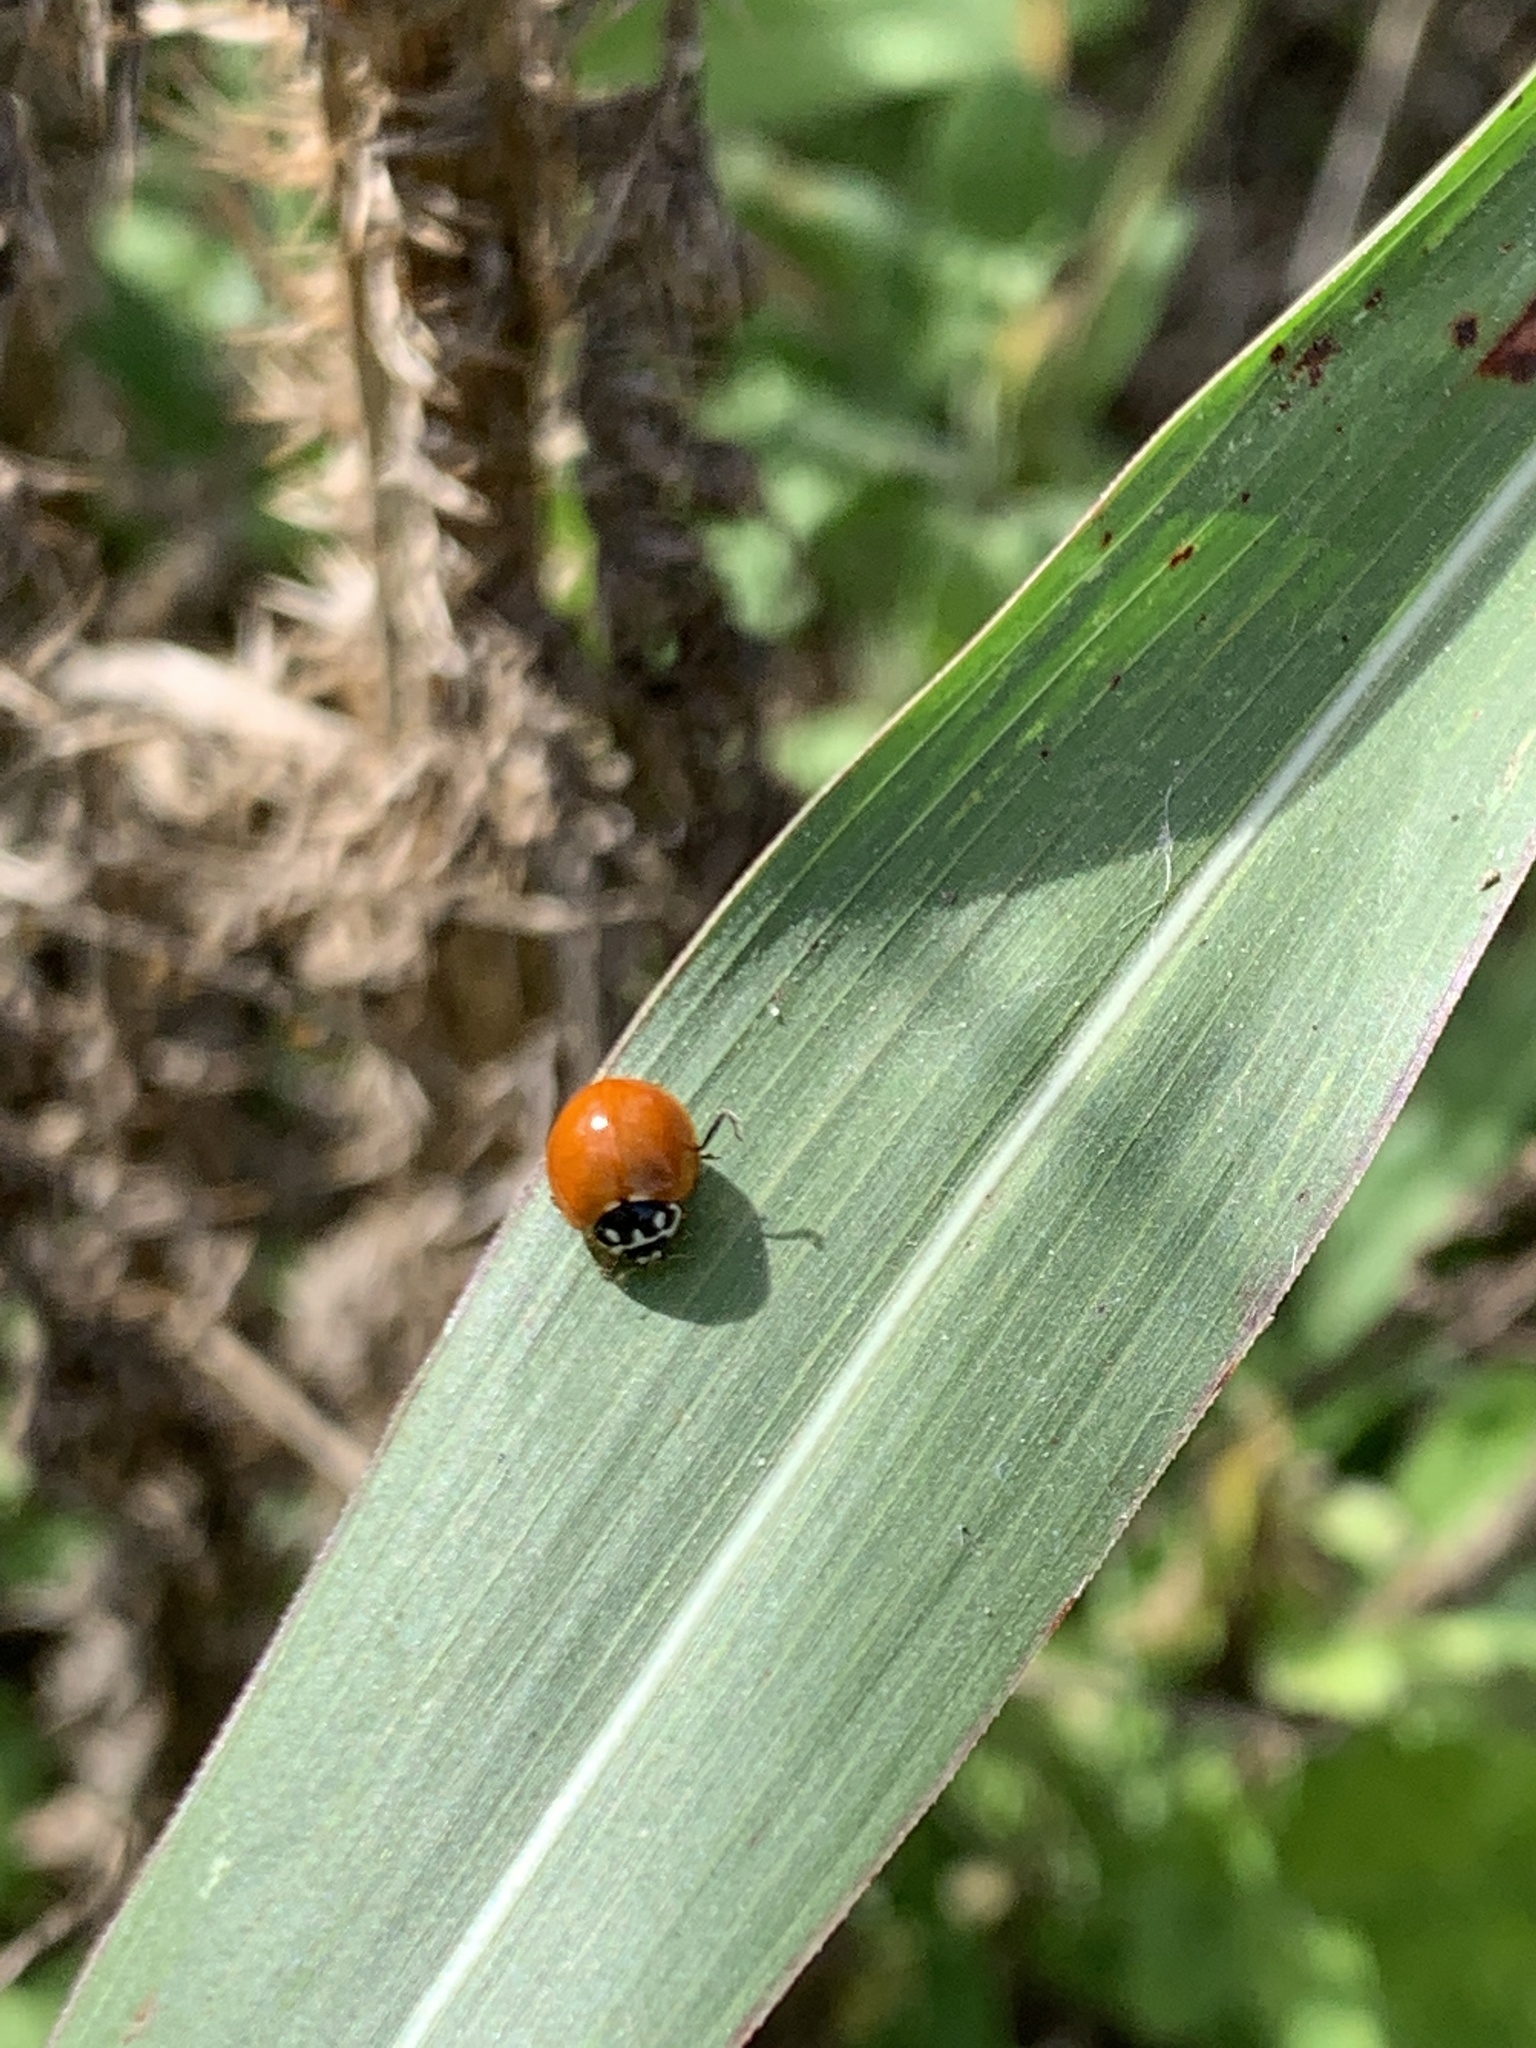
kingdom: Animalia
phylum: Arthropoda
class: Insecta
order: Coleoptera
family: Coccinellidae
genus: Cycloneda
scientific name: Cycloneda sanguinea
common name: Ladybird beetle
